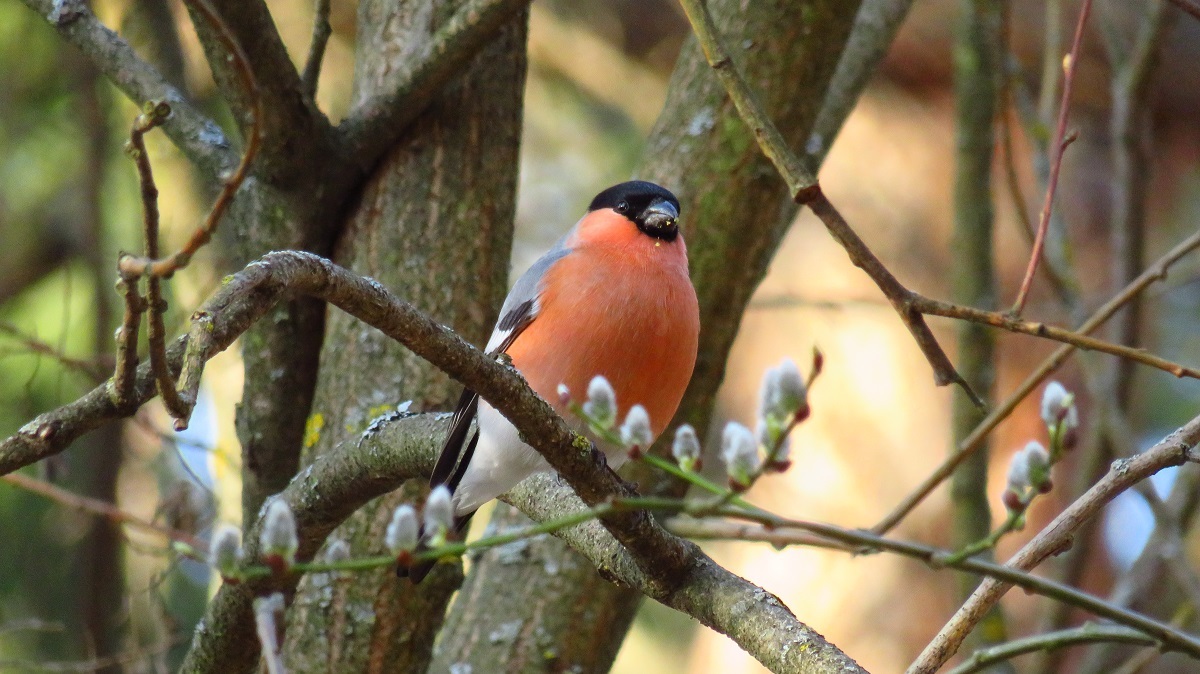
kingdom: Animalia
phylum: Chordata
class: Aves
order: Passeriformes
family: Fringillidae
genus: Pyrrhula
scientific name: Pyrrhula pyrrhula
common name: Eurasian bullfinch
